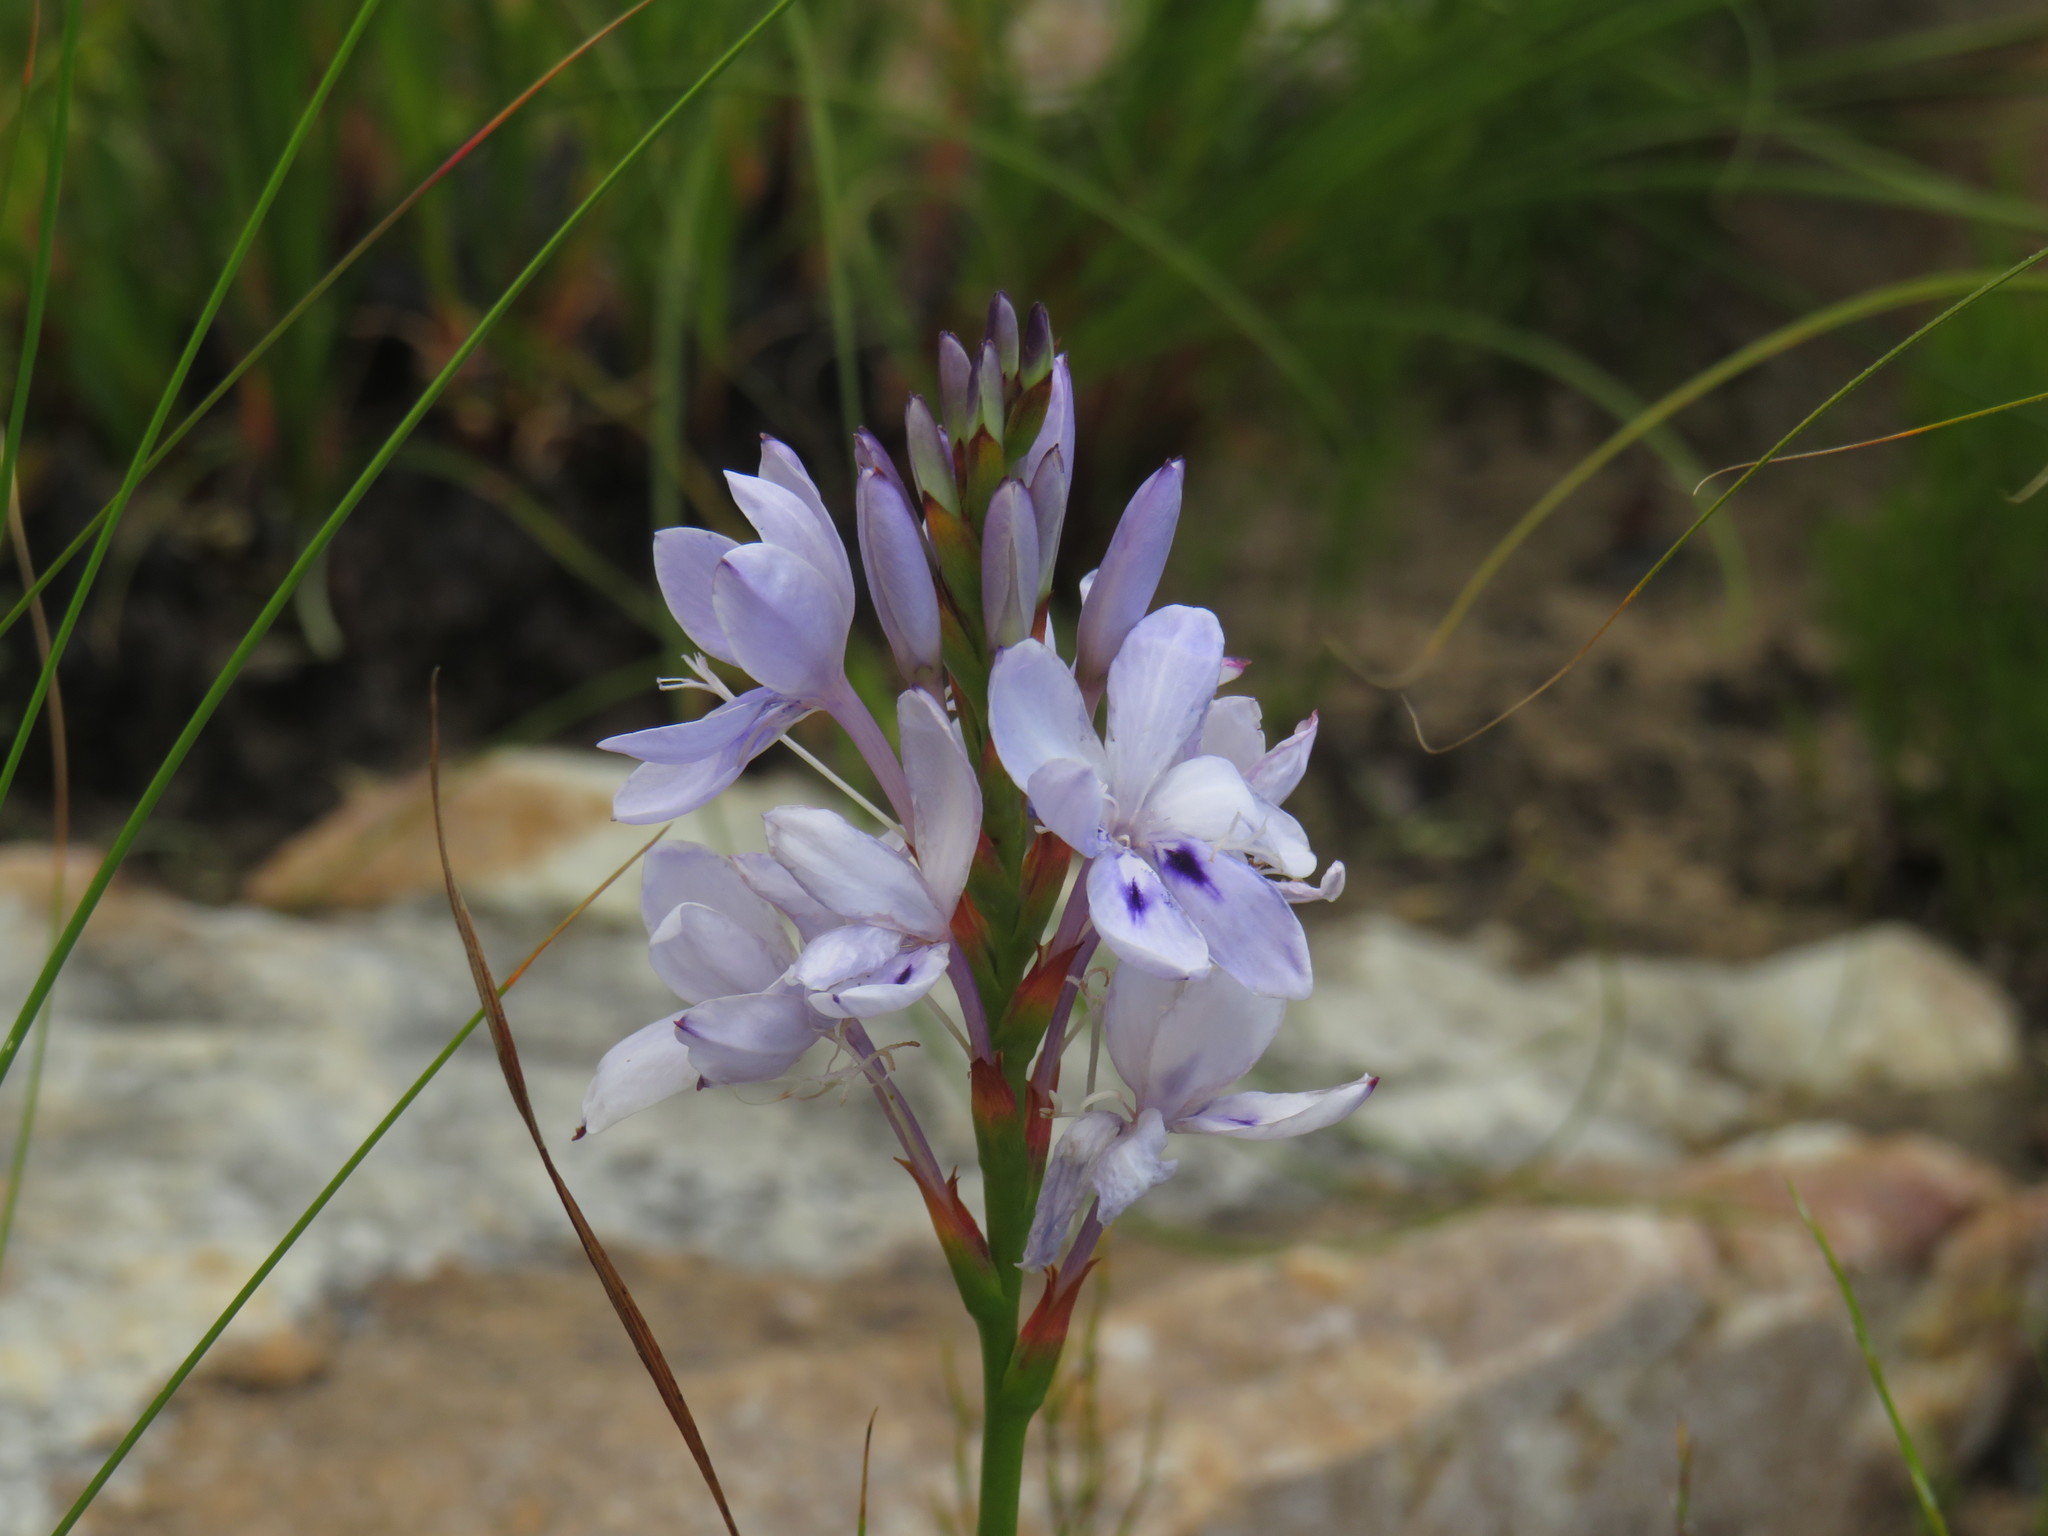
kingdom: Plantae
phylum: Tracheophyta
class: Liliopsida
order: Asparagales
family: Iridaceae
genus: Thereianthus
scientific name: Thereianthus spicatus
